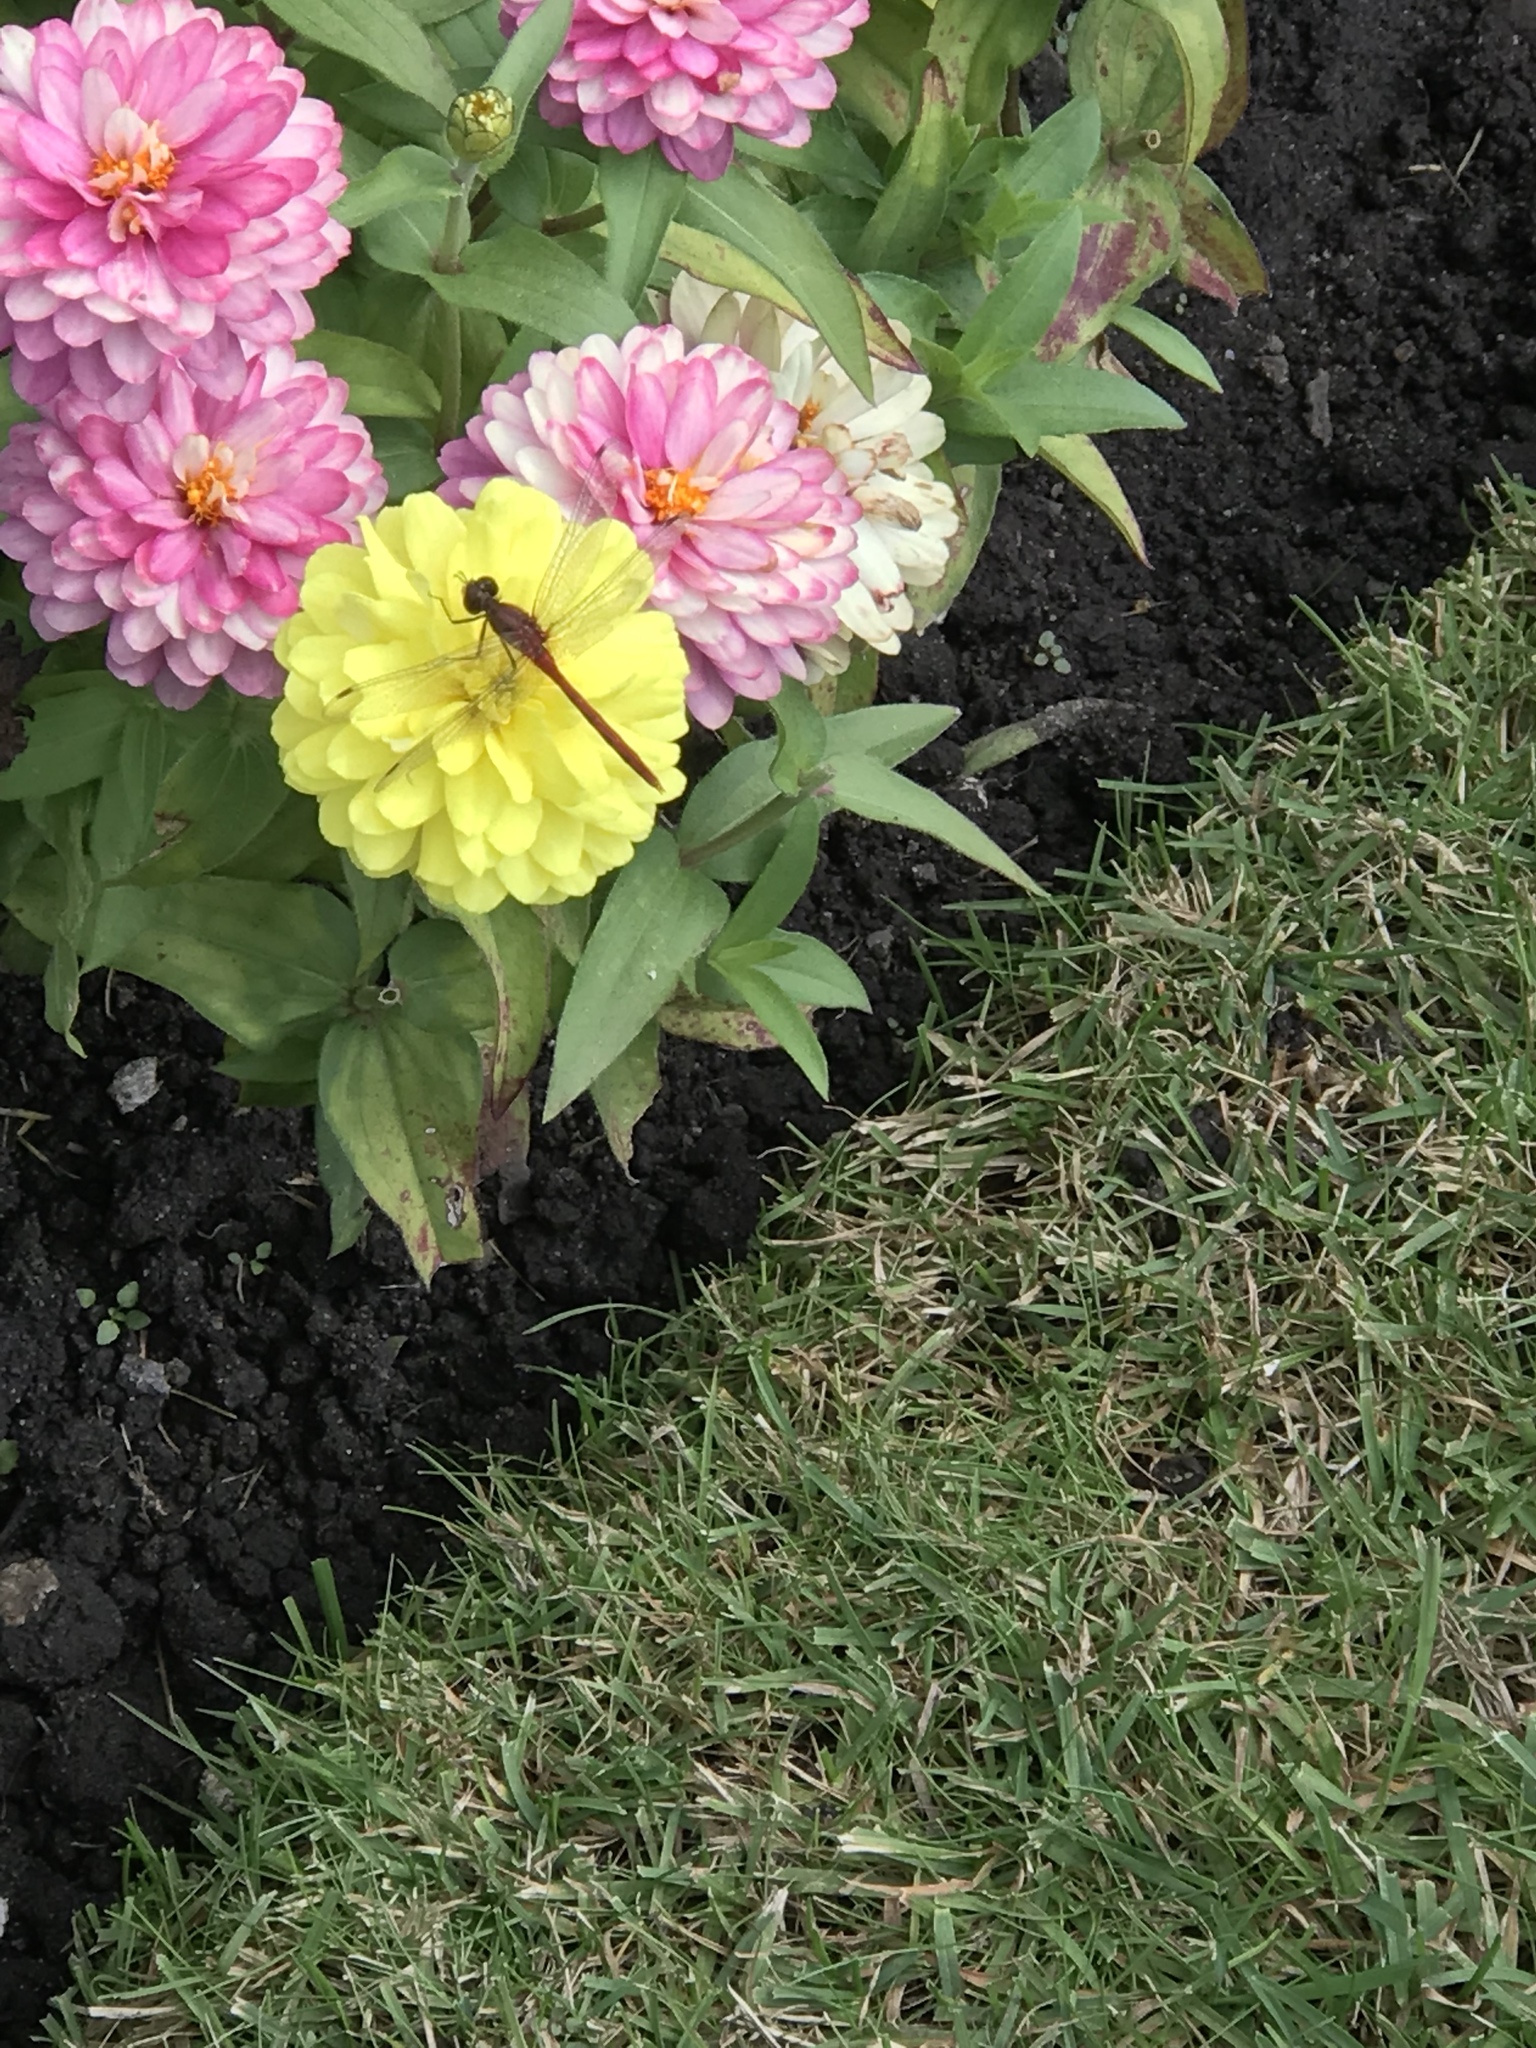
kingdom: Animalia
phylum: Arthropoda
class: Insecta
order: Odonata
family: Libellulidae
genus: Sympetrum
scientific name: Sympetrum vicinum
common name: Autumn meadowhawk
